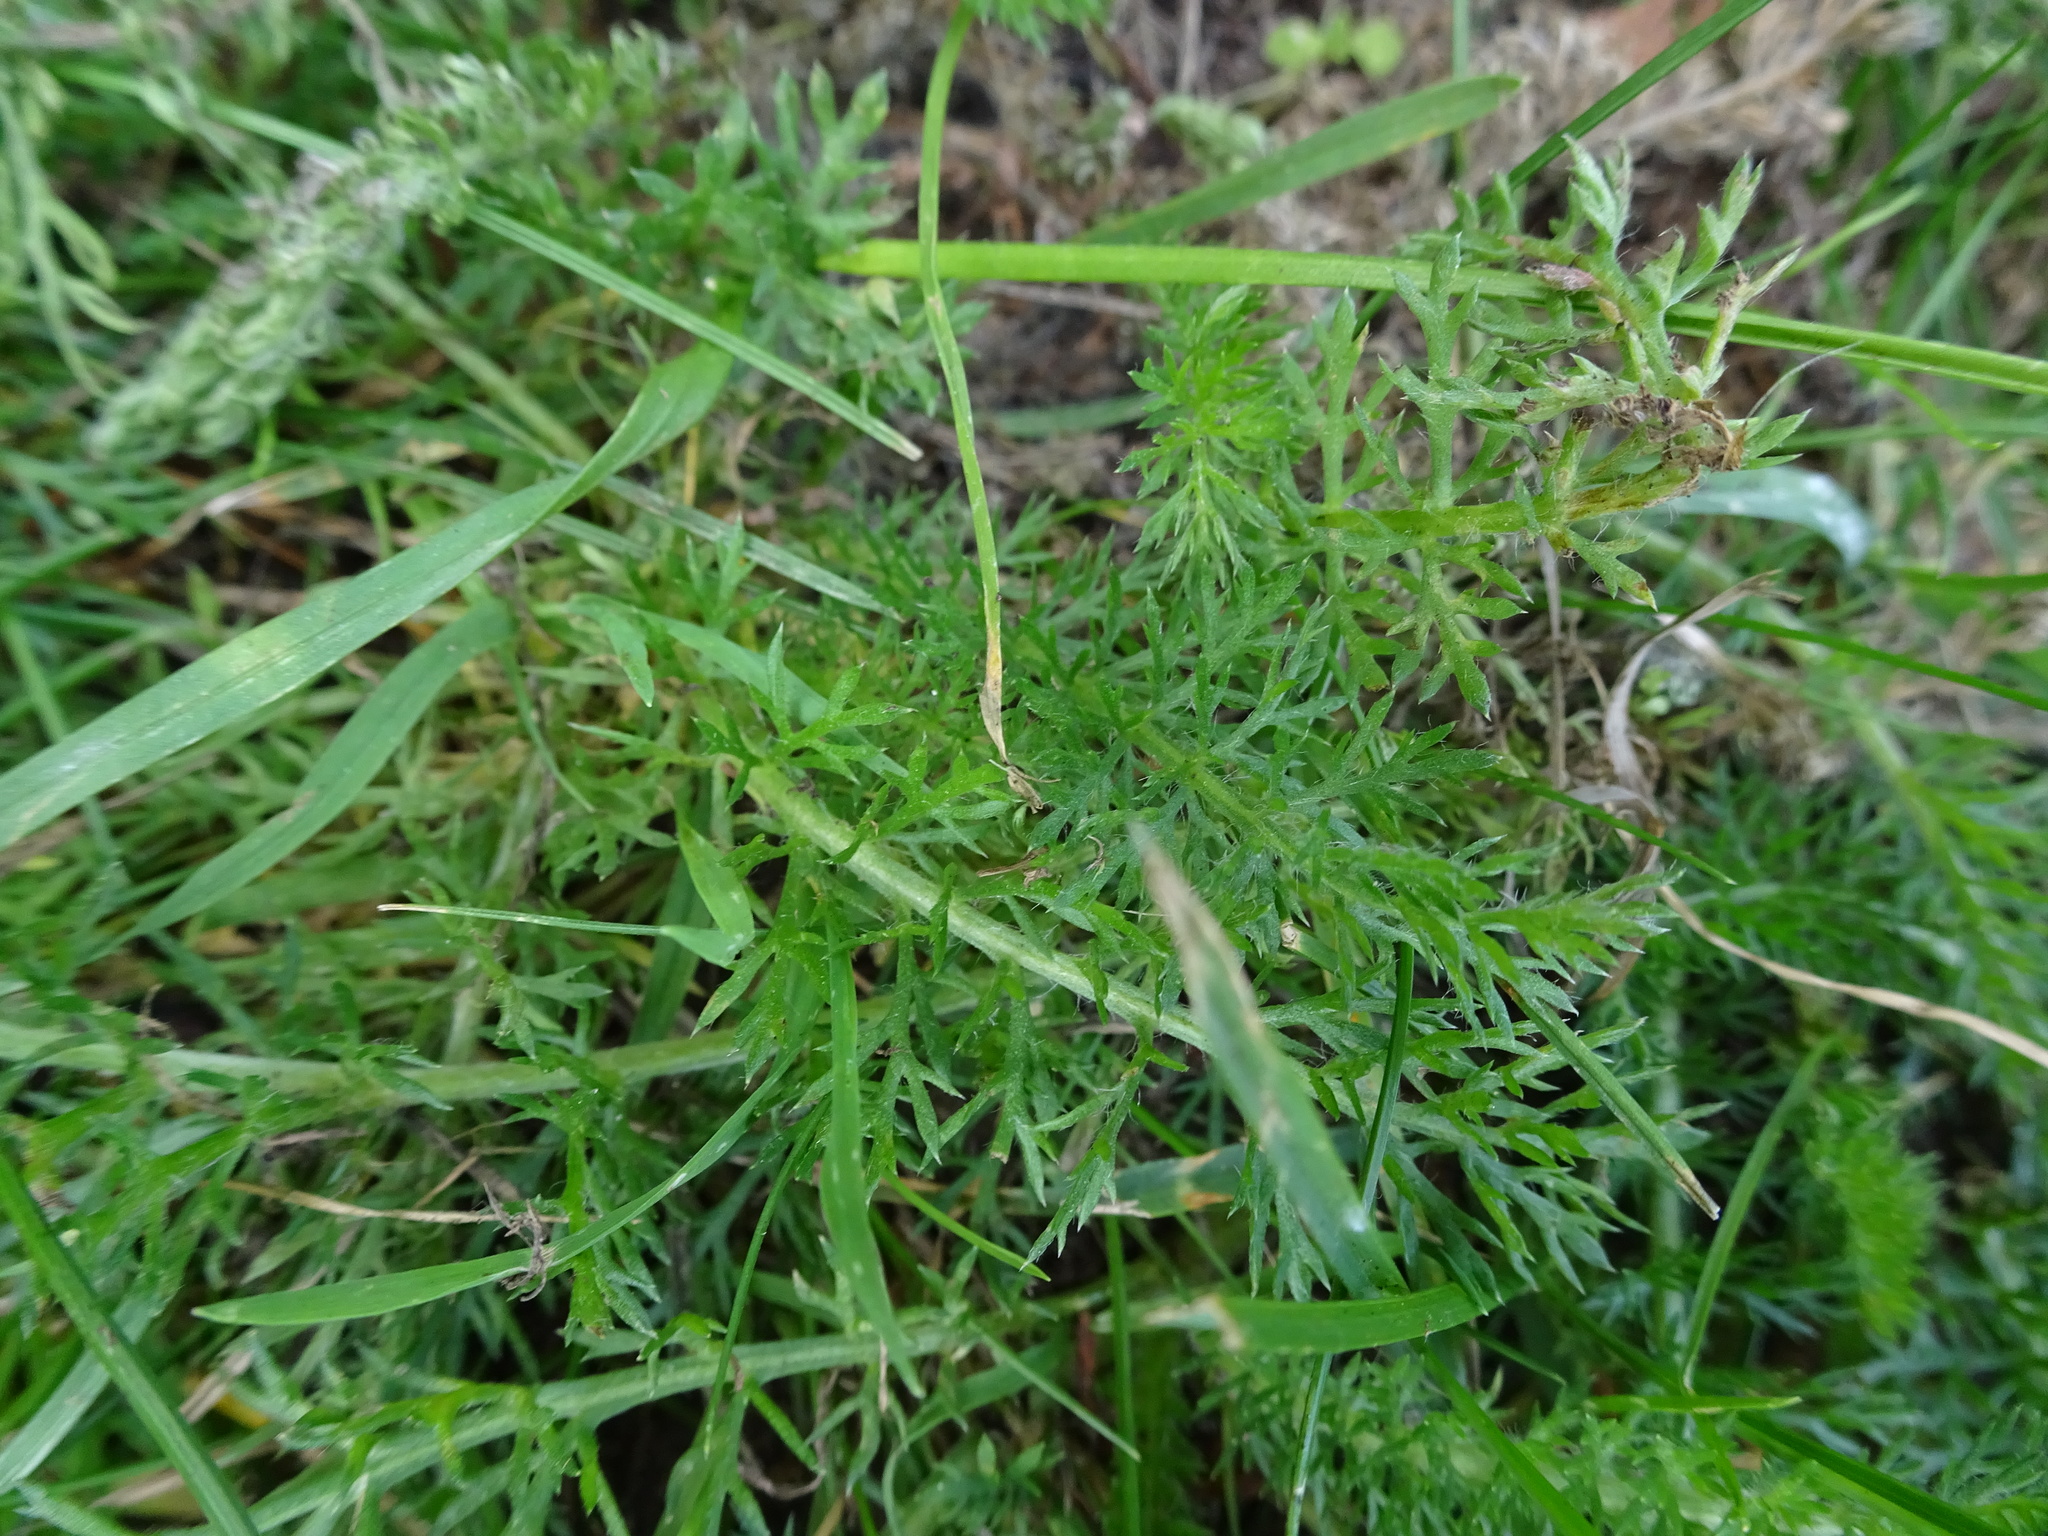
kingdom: Plantae
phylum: Tracheophyta
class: Magnoliopsida
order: Asterales
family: Asteraceae
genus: Achillea
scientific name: Achillea millefolium
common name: Yarrow
